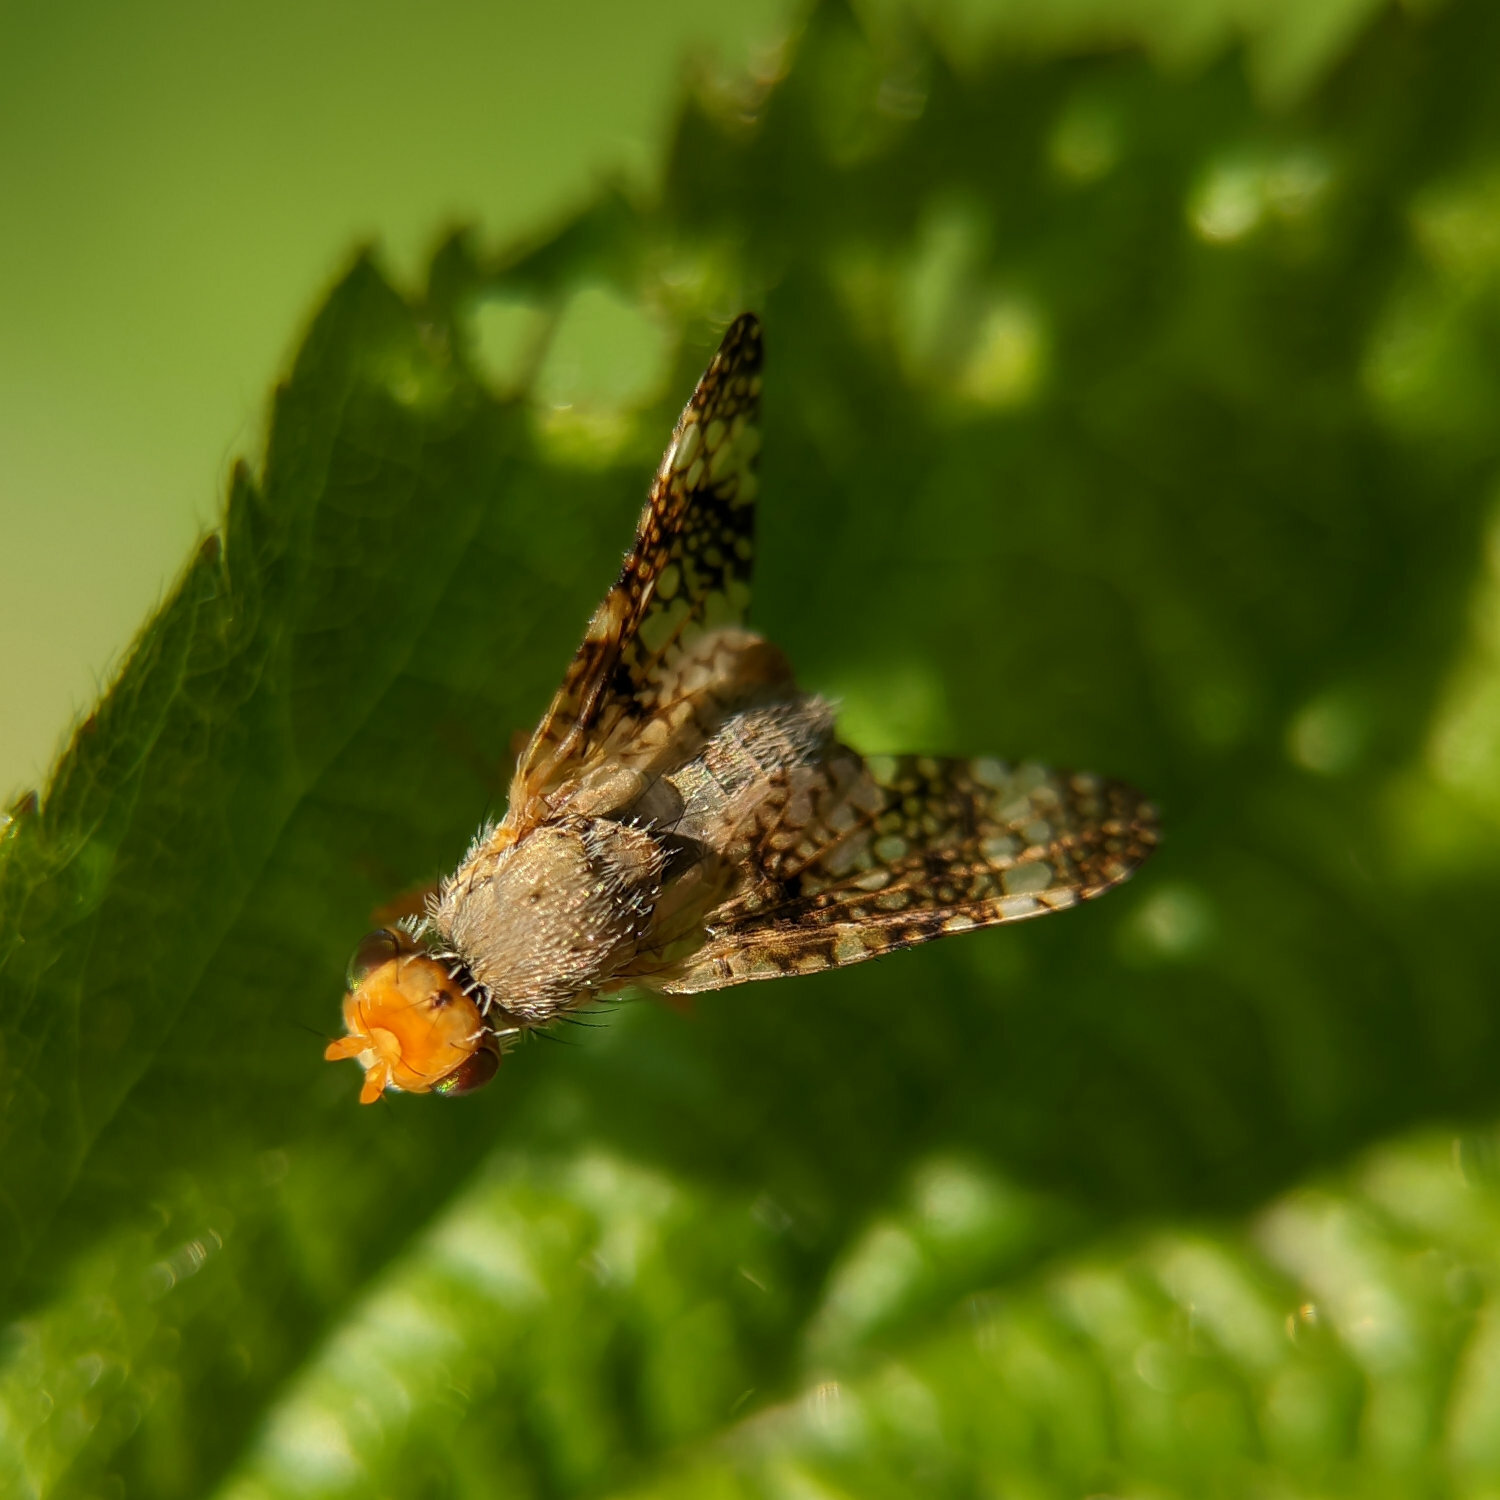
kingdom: Animalia
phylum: Arthropoda
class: Insecta
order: Diptera
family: Tephritidae
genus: Oxyna
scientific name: Oxyna parietina
